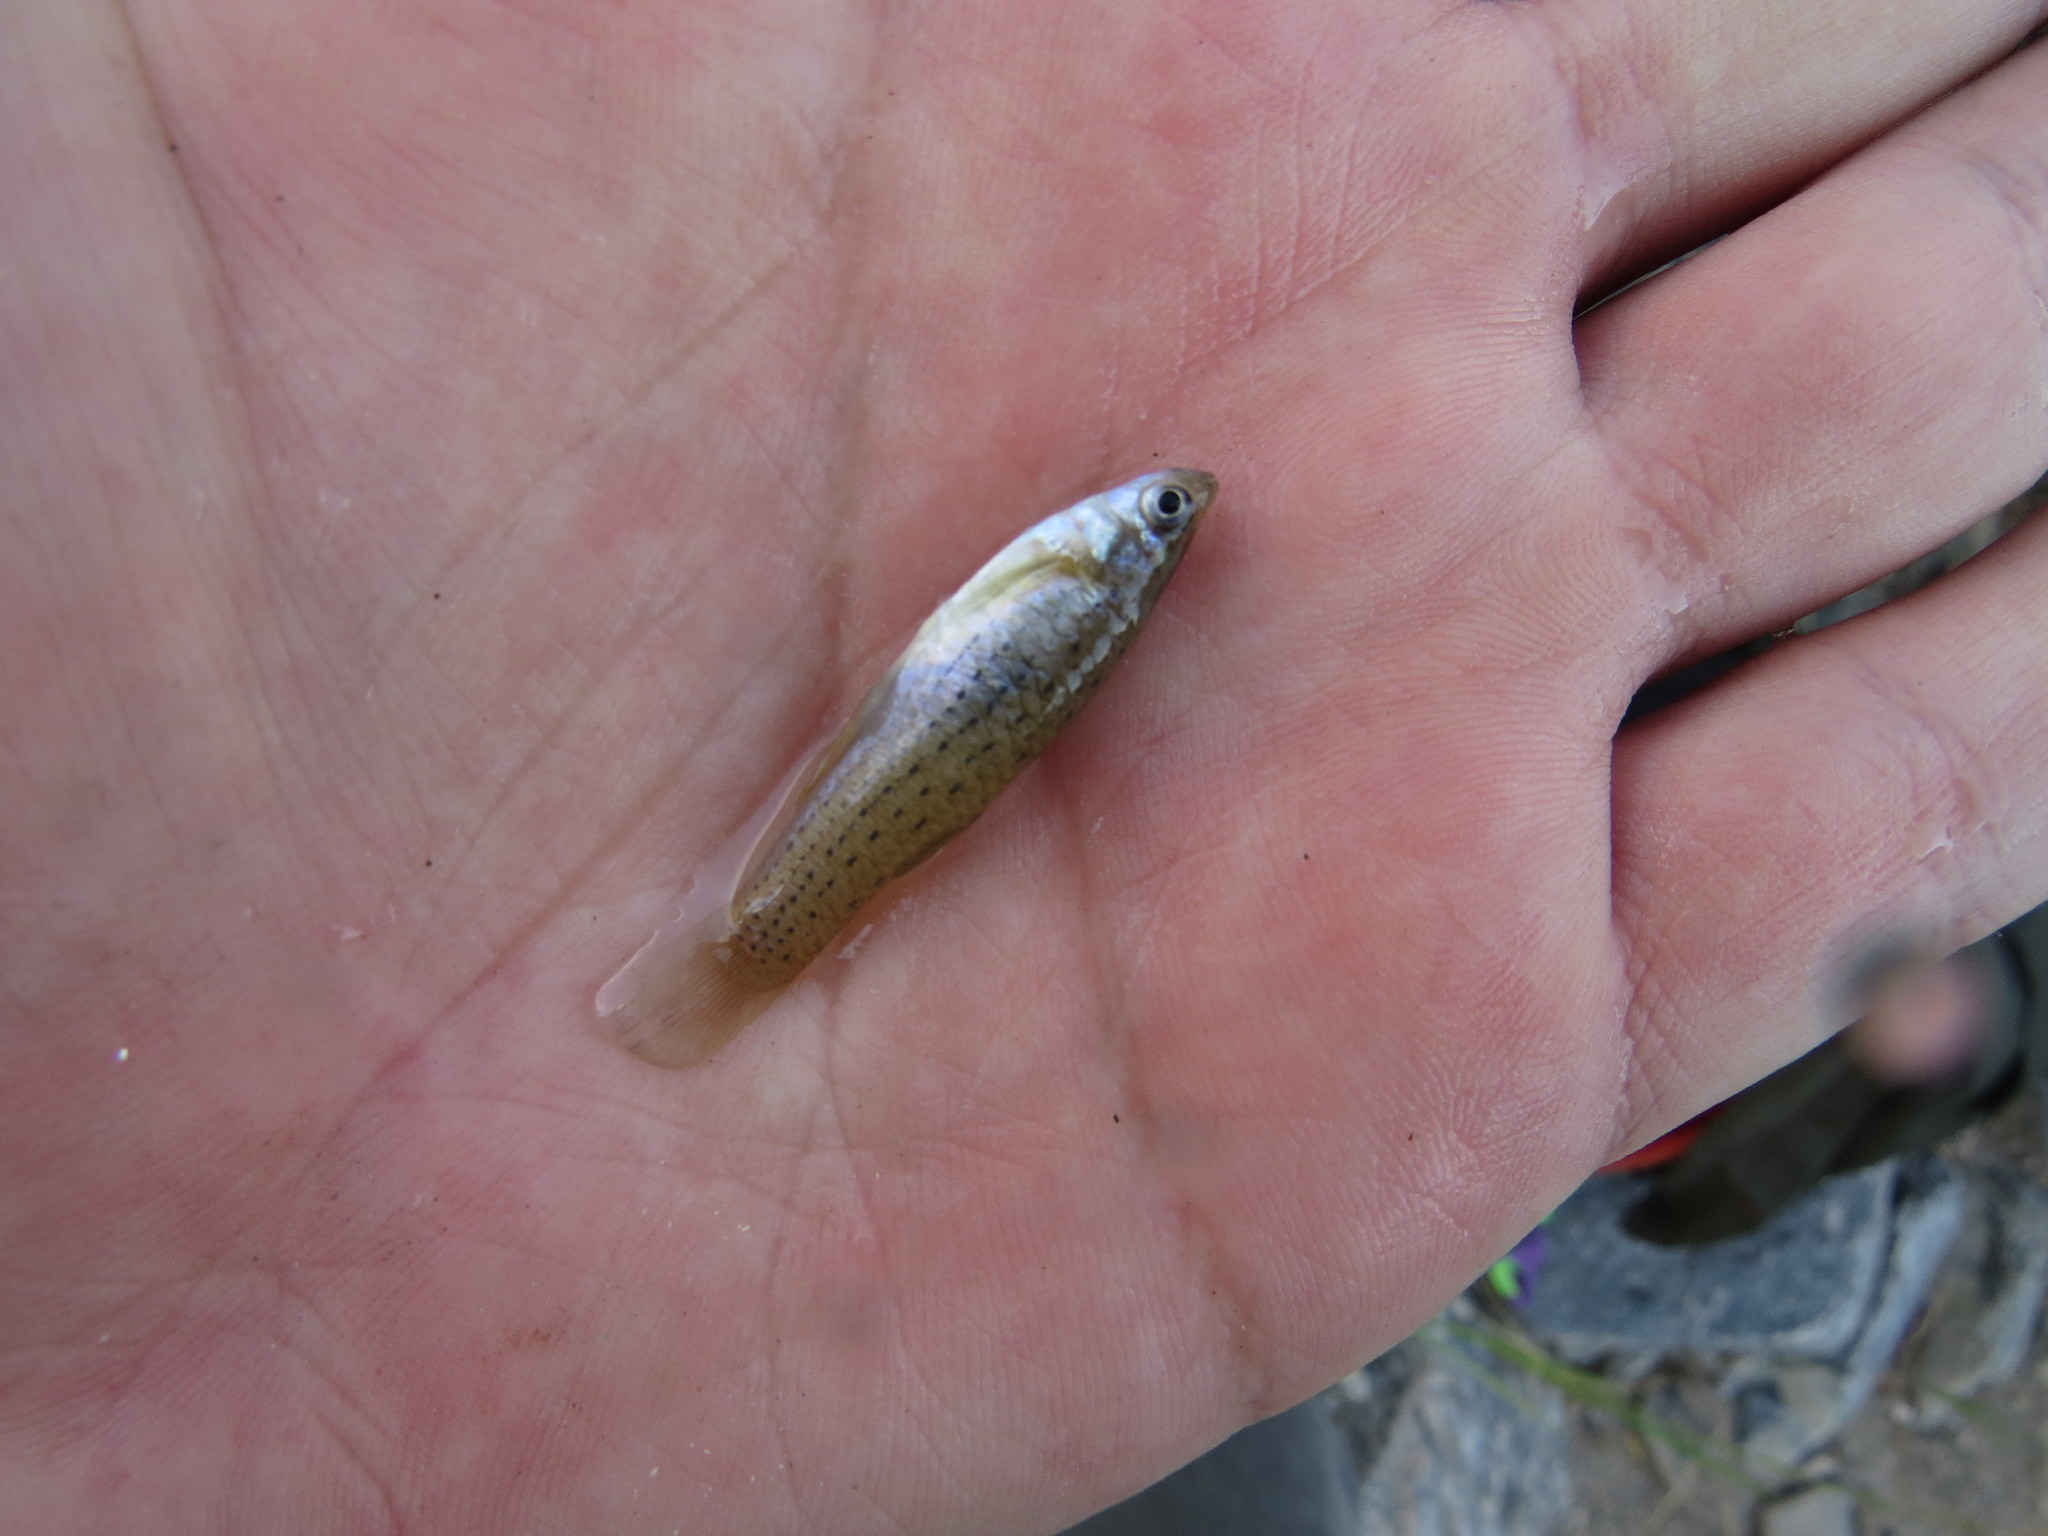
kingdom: Animalia
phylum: Chordata
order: Cyprinodontiformes
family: Anablepidae
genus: Jenynsia
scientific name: Jenynsia lineata
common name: Onesided livebearer
